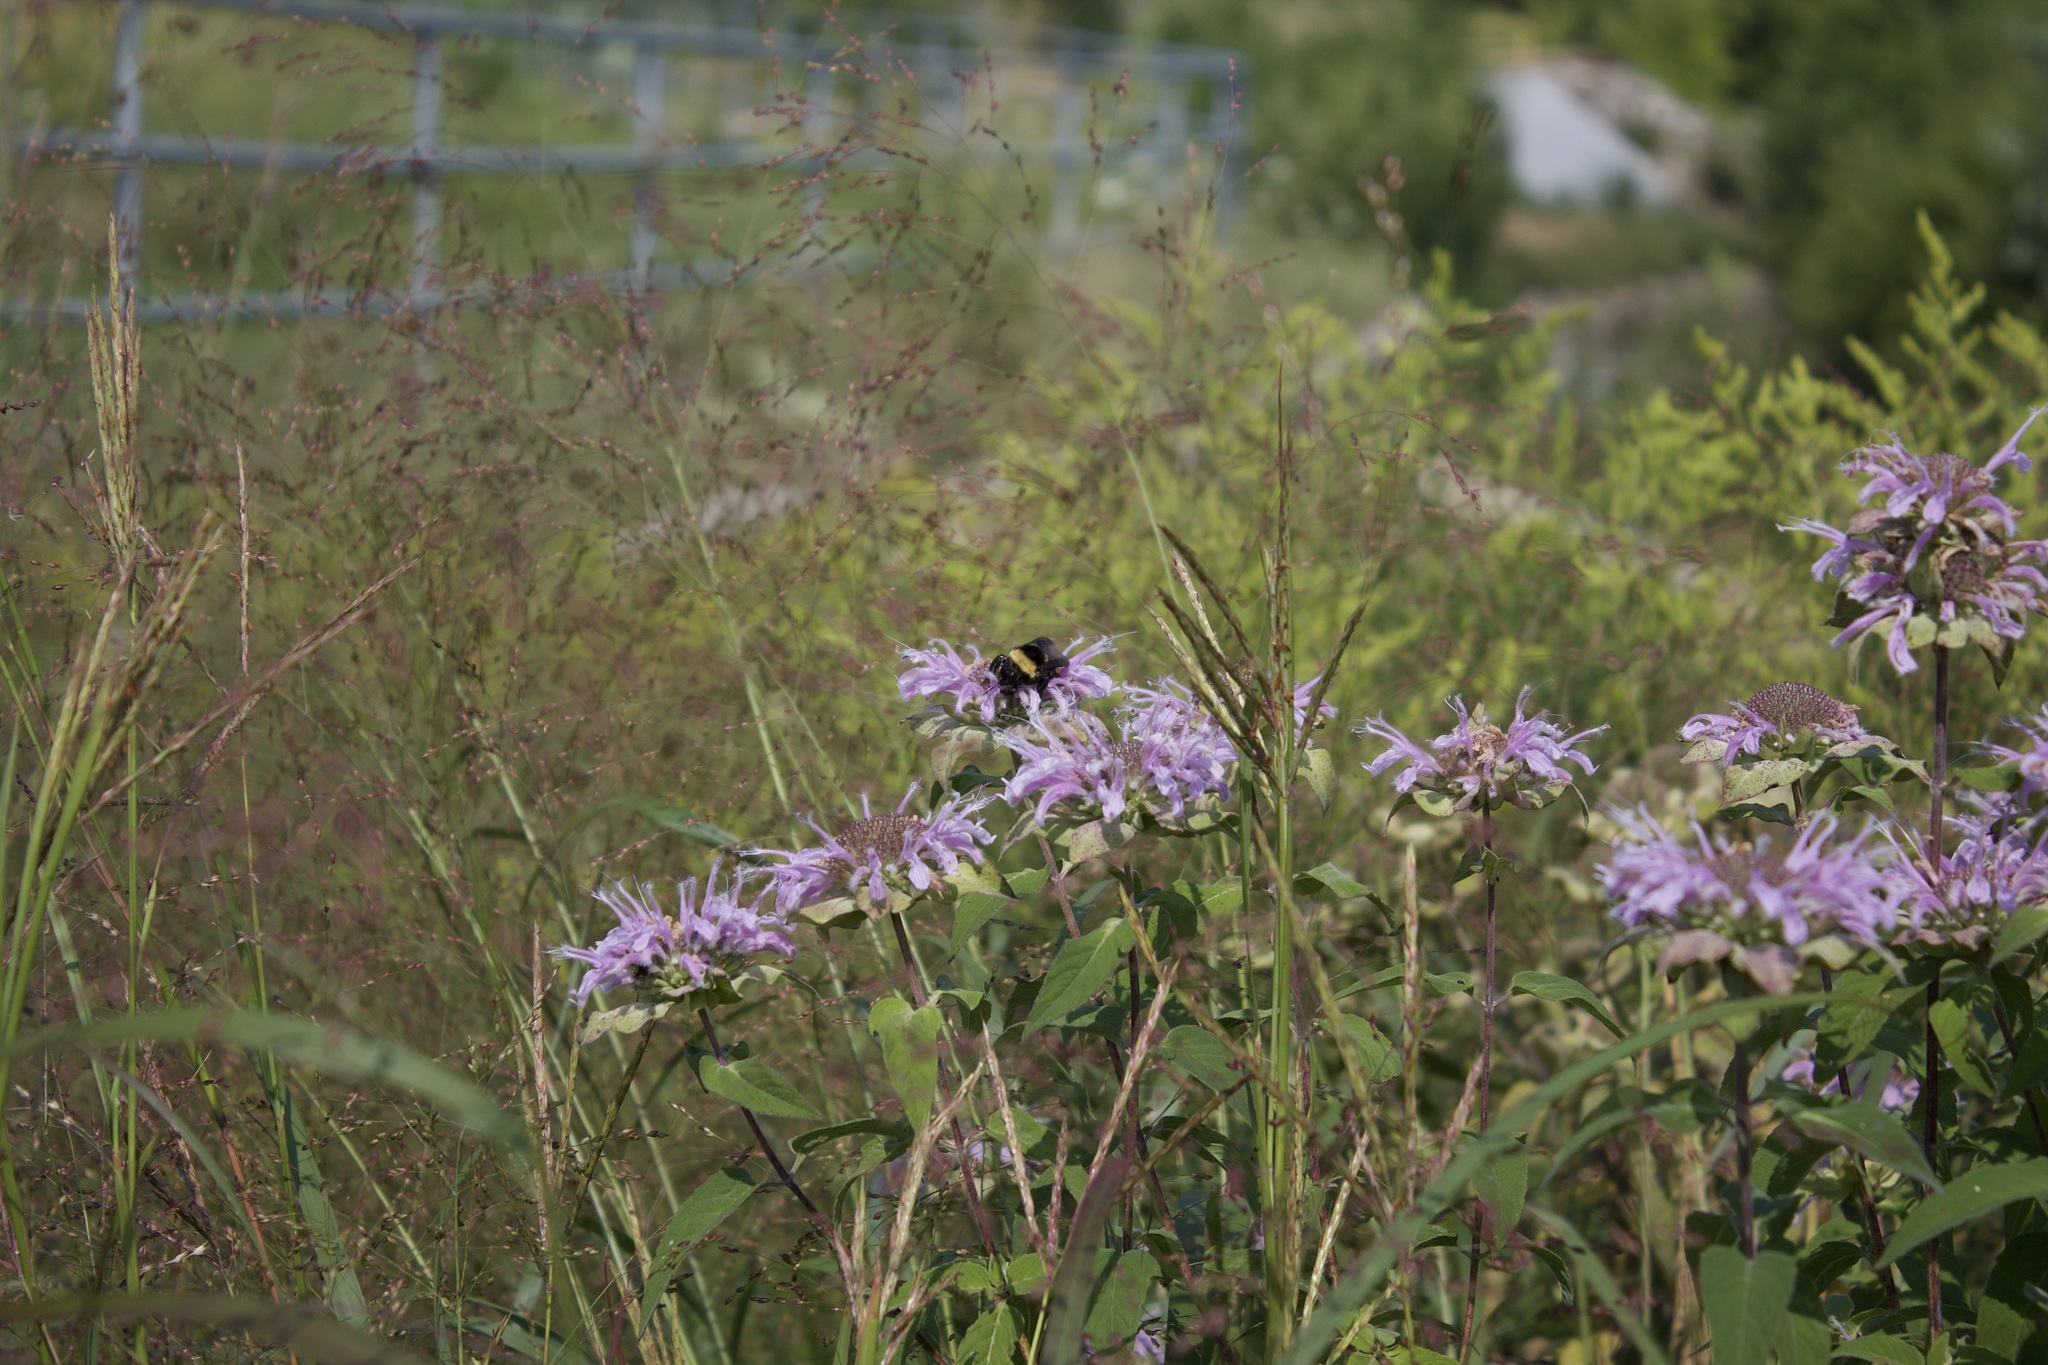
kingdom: Animalia
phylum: Arthropoda
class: Insecta
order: Hymenoptera
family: Apidae
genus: Bombus
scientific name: Bombus auricomus
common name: Black and gold bumble bee
